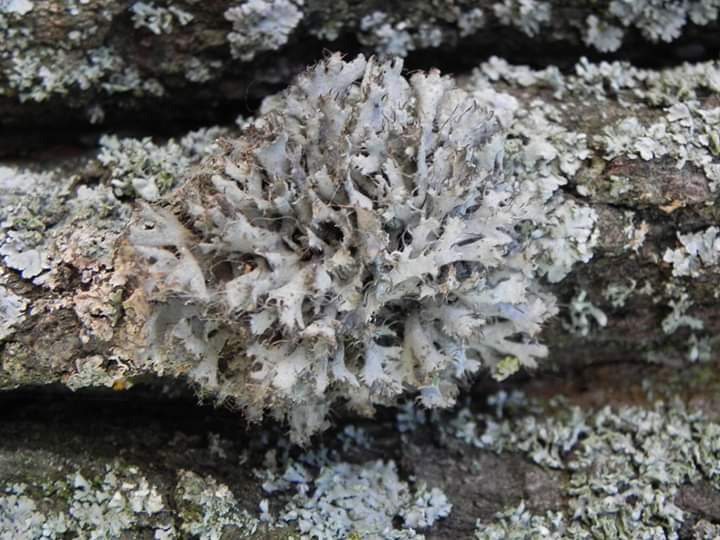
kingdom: Fungi
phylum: Ascomycota
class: Lecanoromycetes
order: Caliciales
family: Physciaceae
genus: Anaptychia
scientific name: Anaptychia ciliaris
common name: Great ciliated lichen
